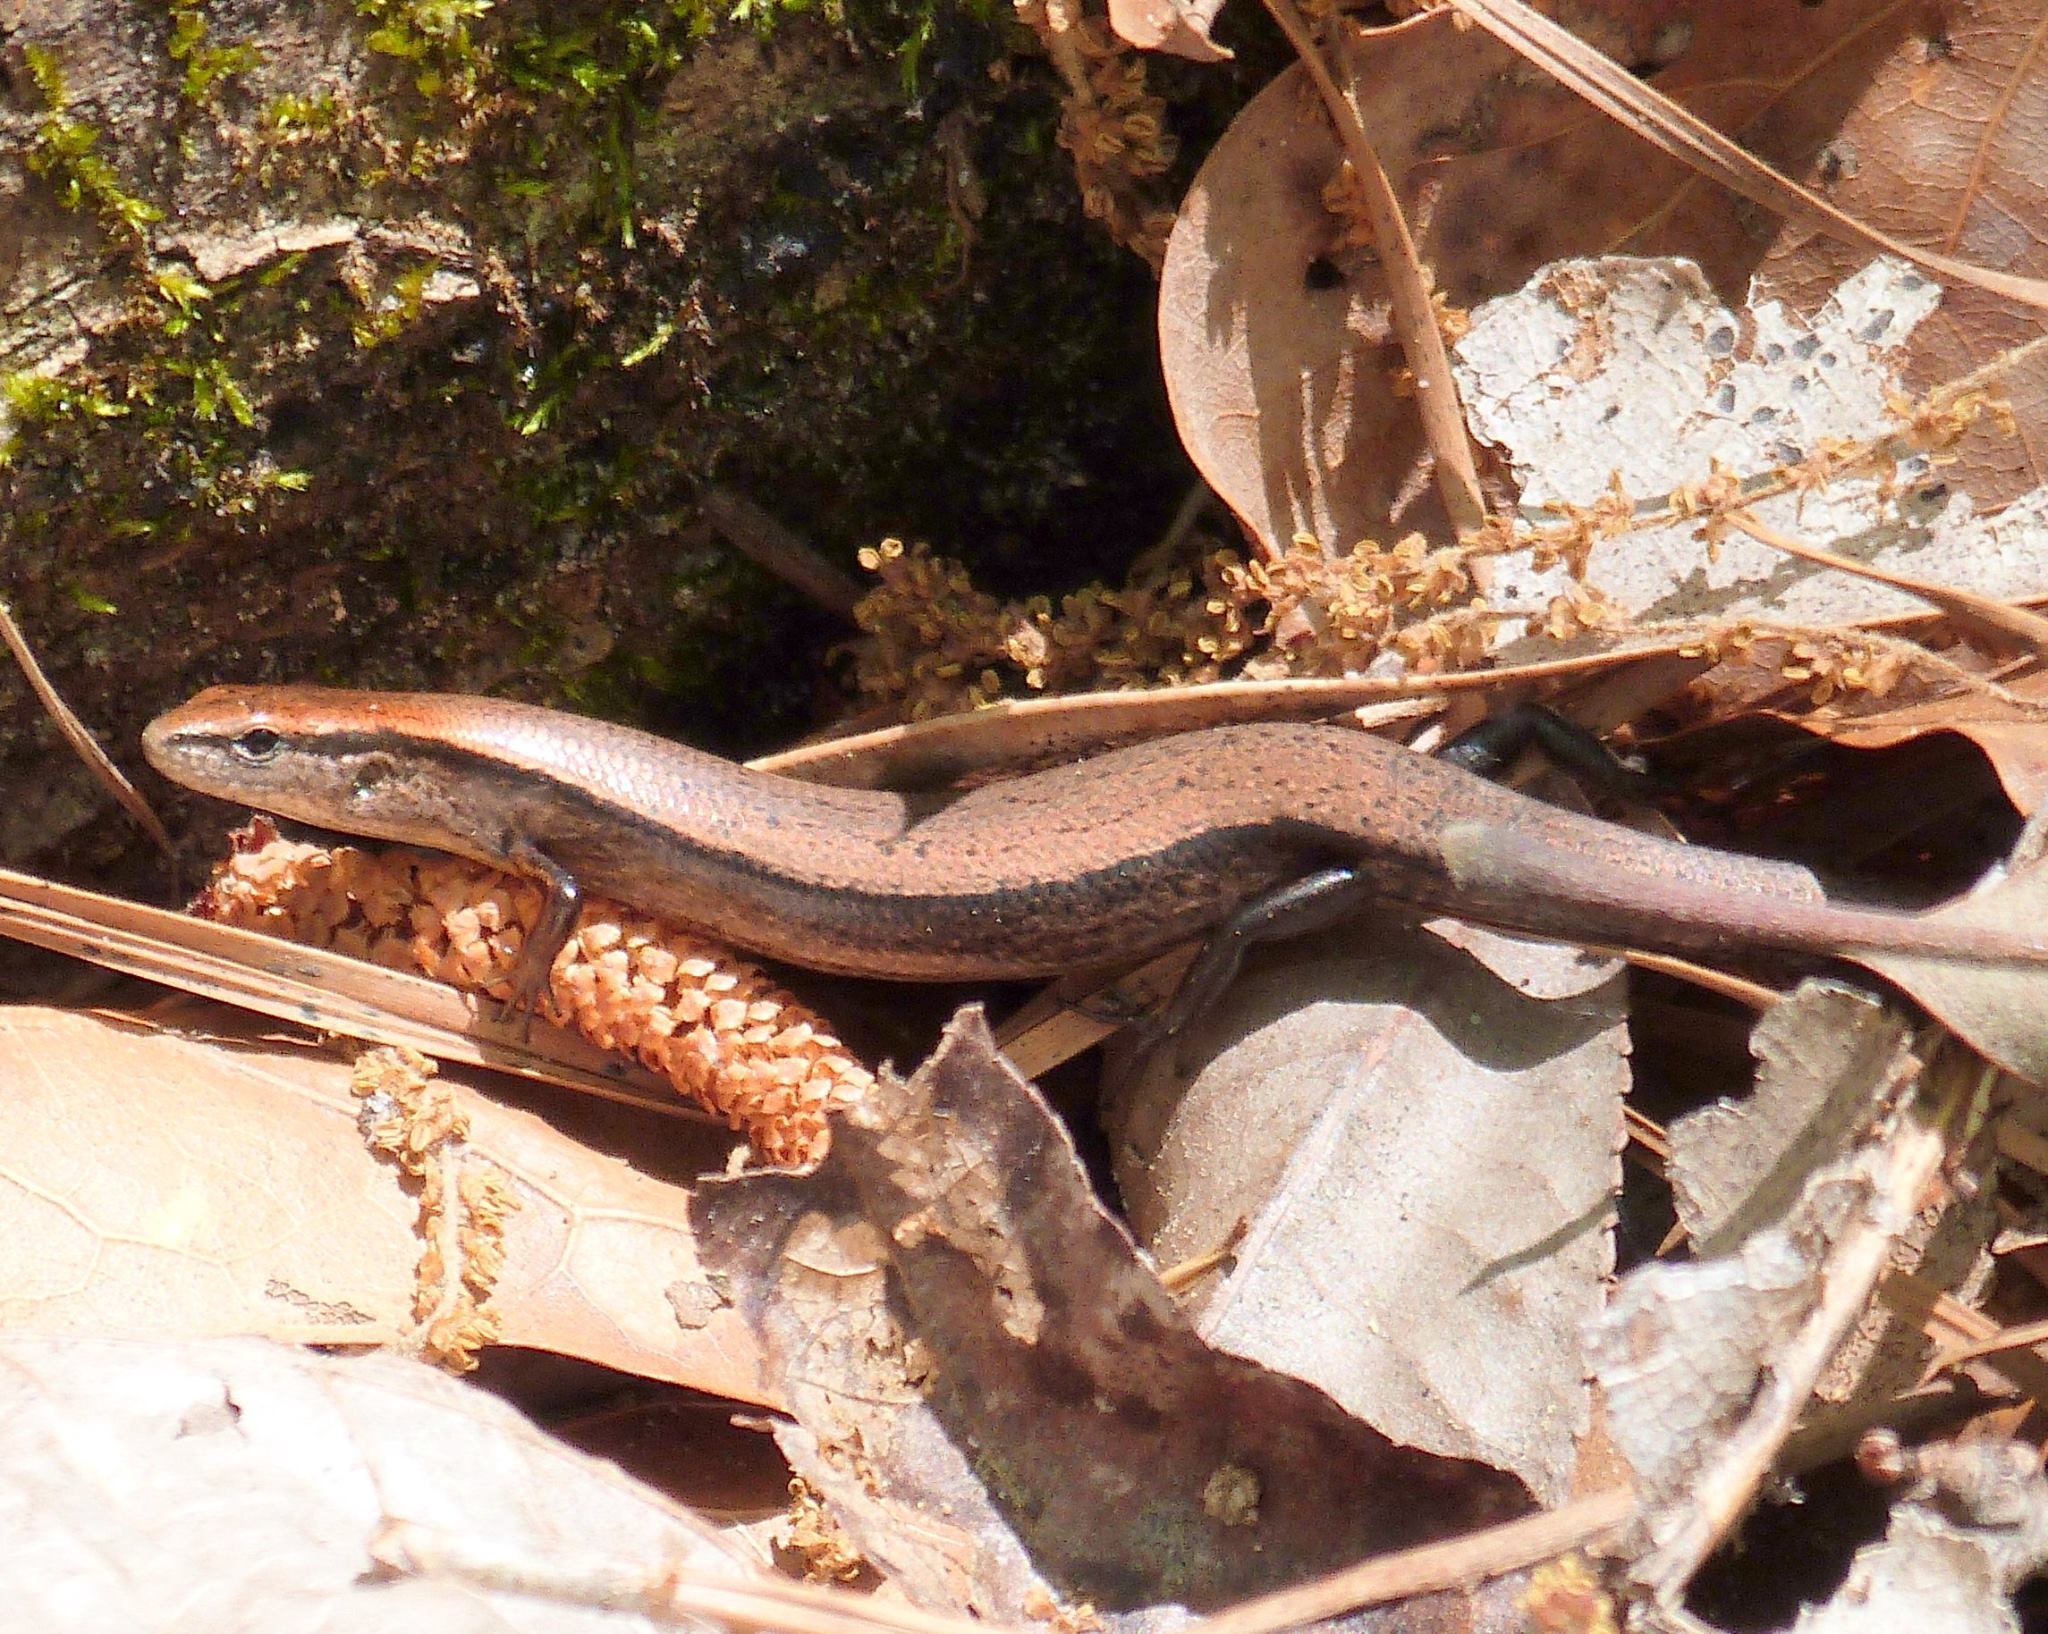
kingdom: Animalia
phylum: Chordata
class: Squamata
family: Scincidae
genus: Scincella
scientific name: Scincella lateralis
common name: Ground skink
